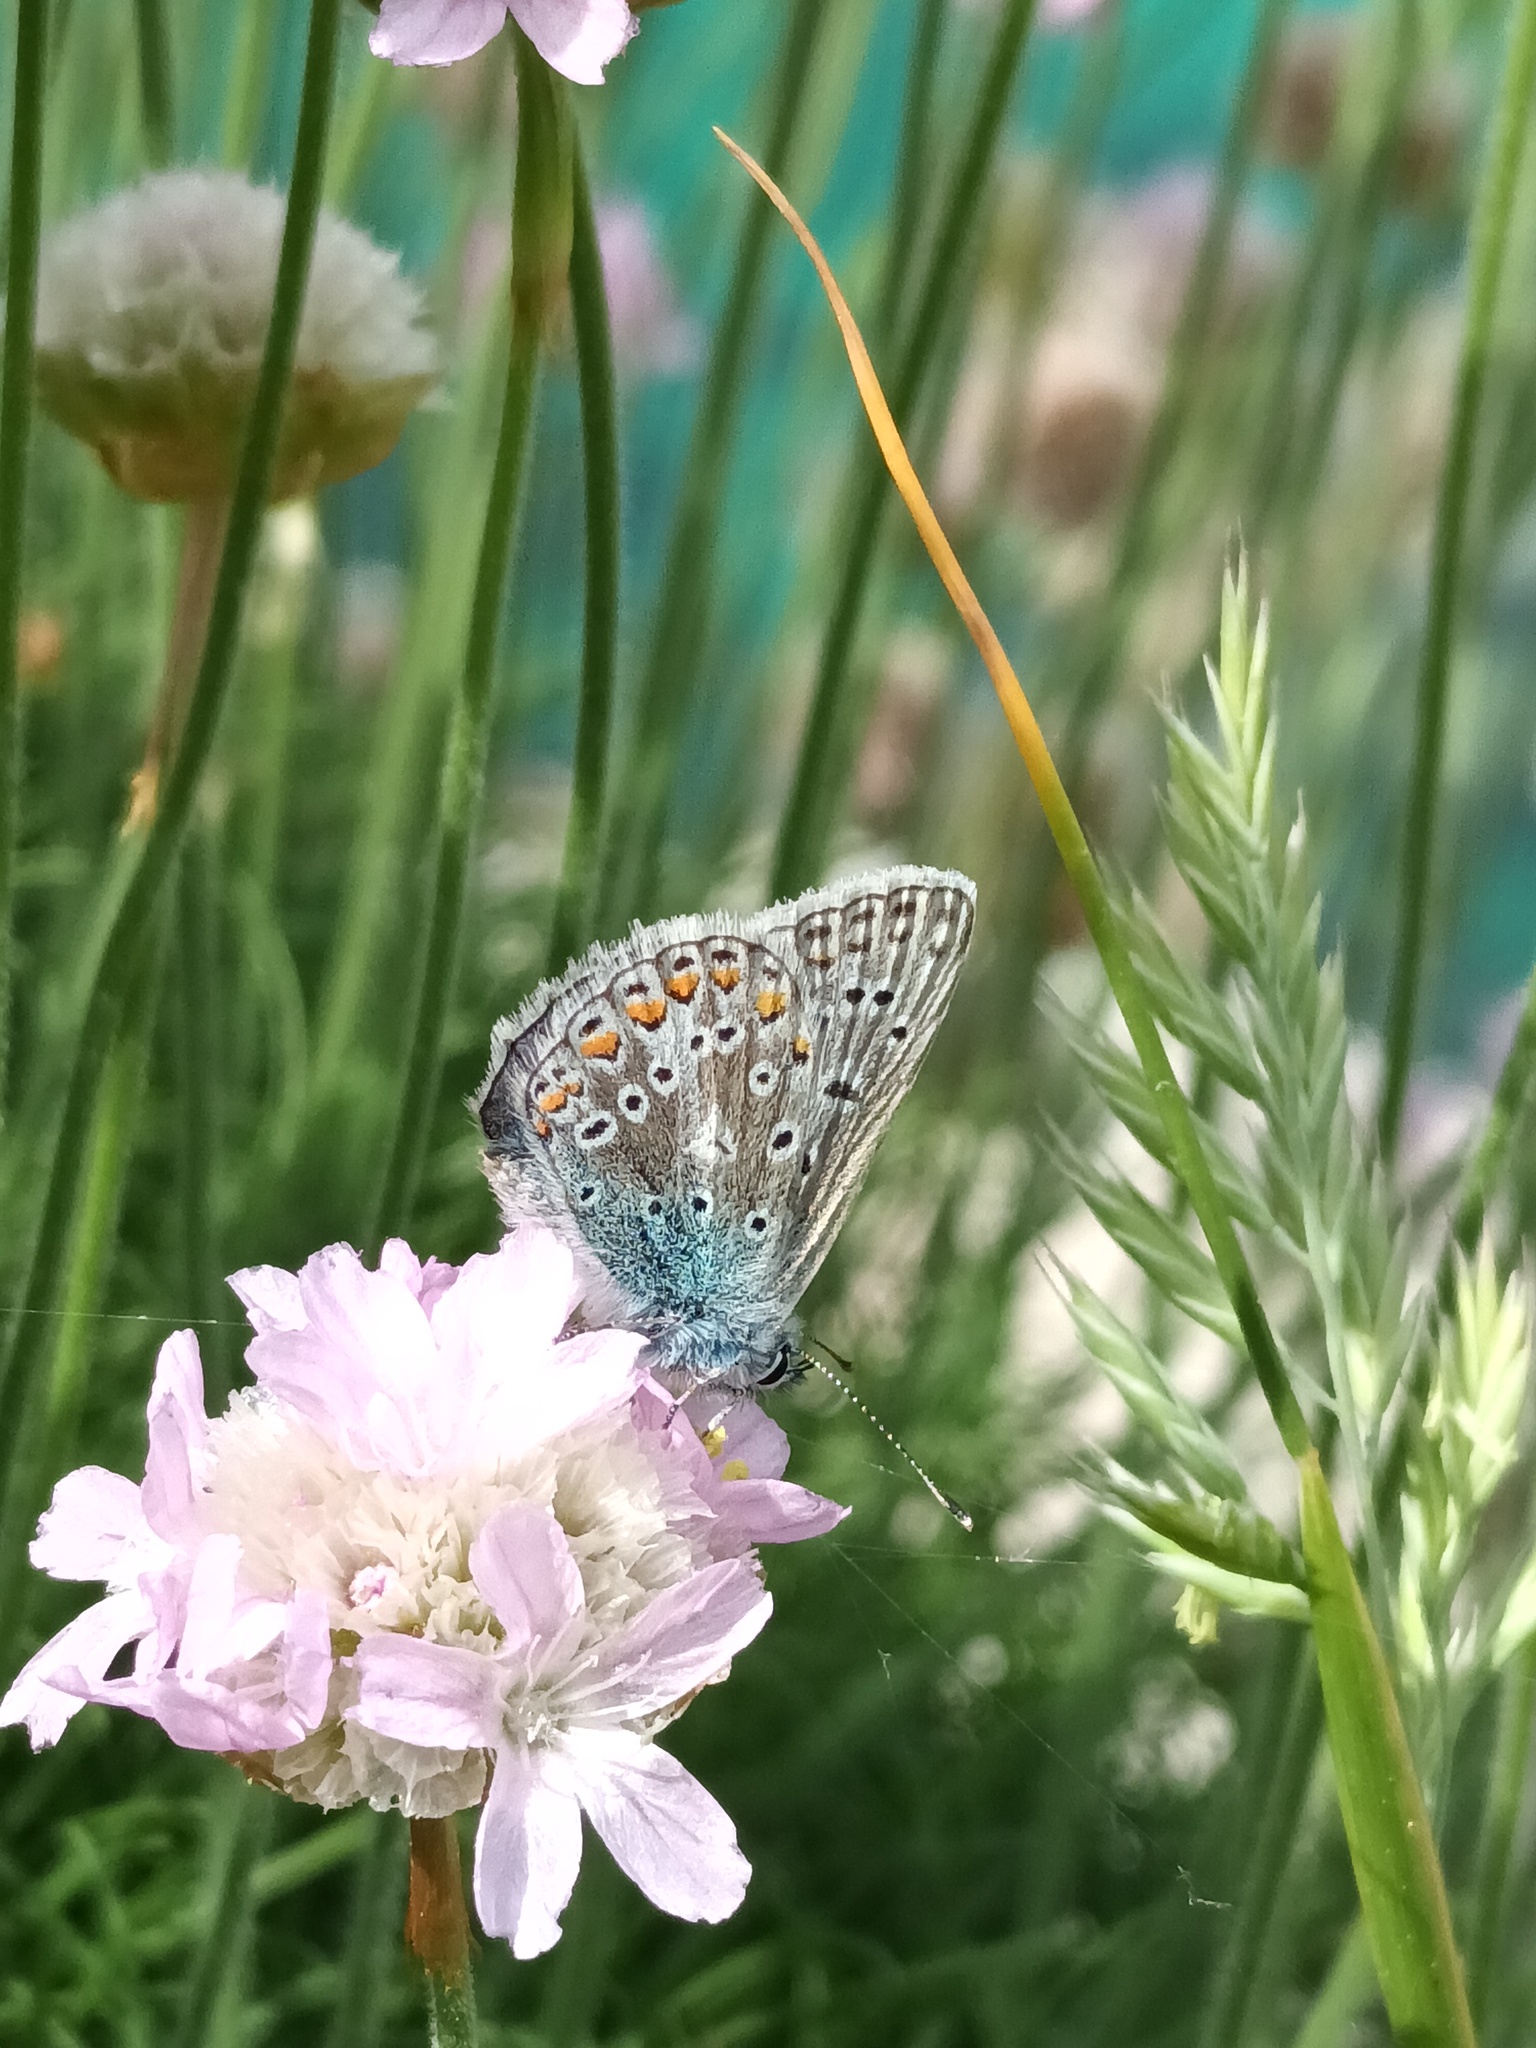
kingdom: Animalia
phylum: Arthropoda
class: Insecta
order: Lepidoptera
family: Lycaenidae
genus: Polyommatus
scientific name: Polyommatus icarus
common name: Common blue
